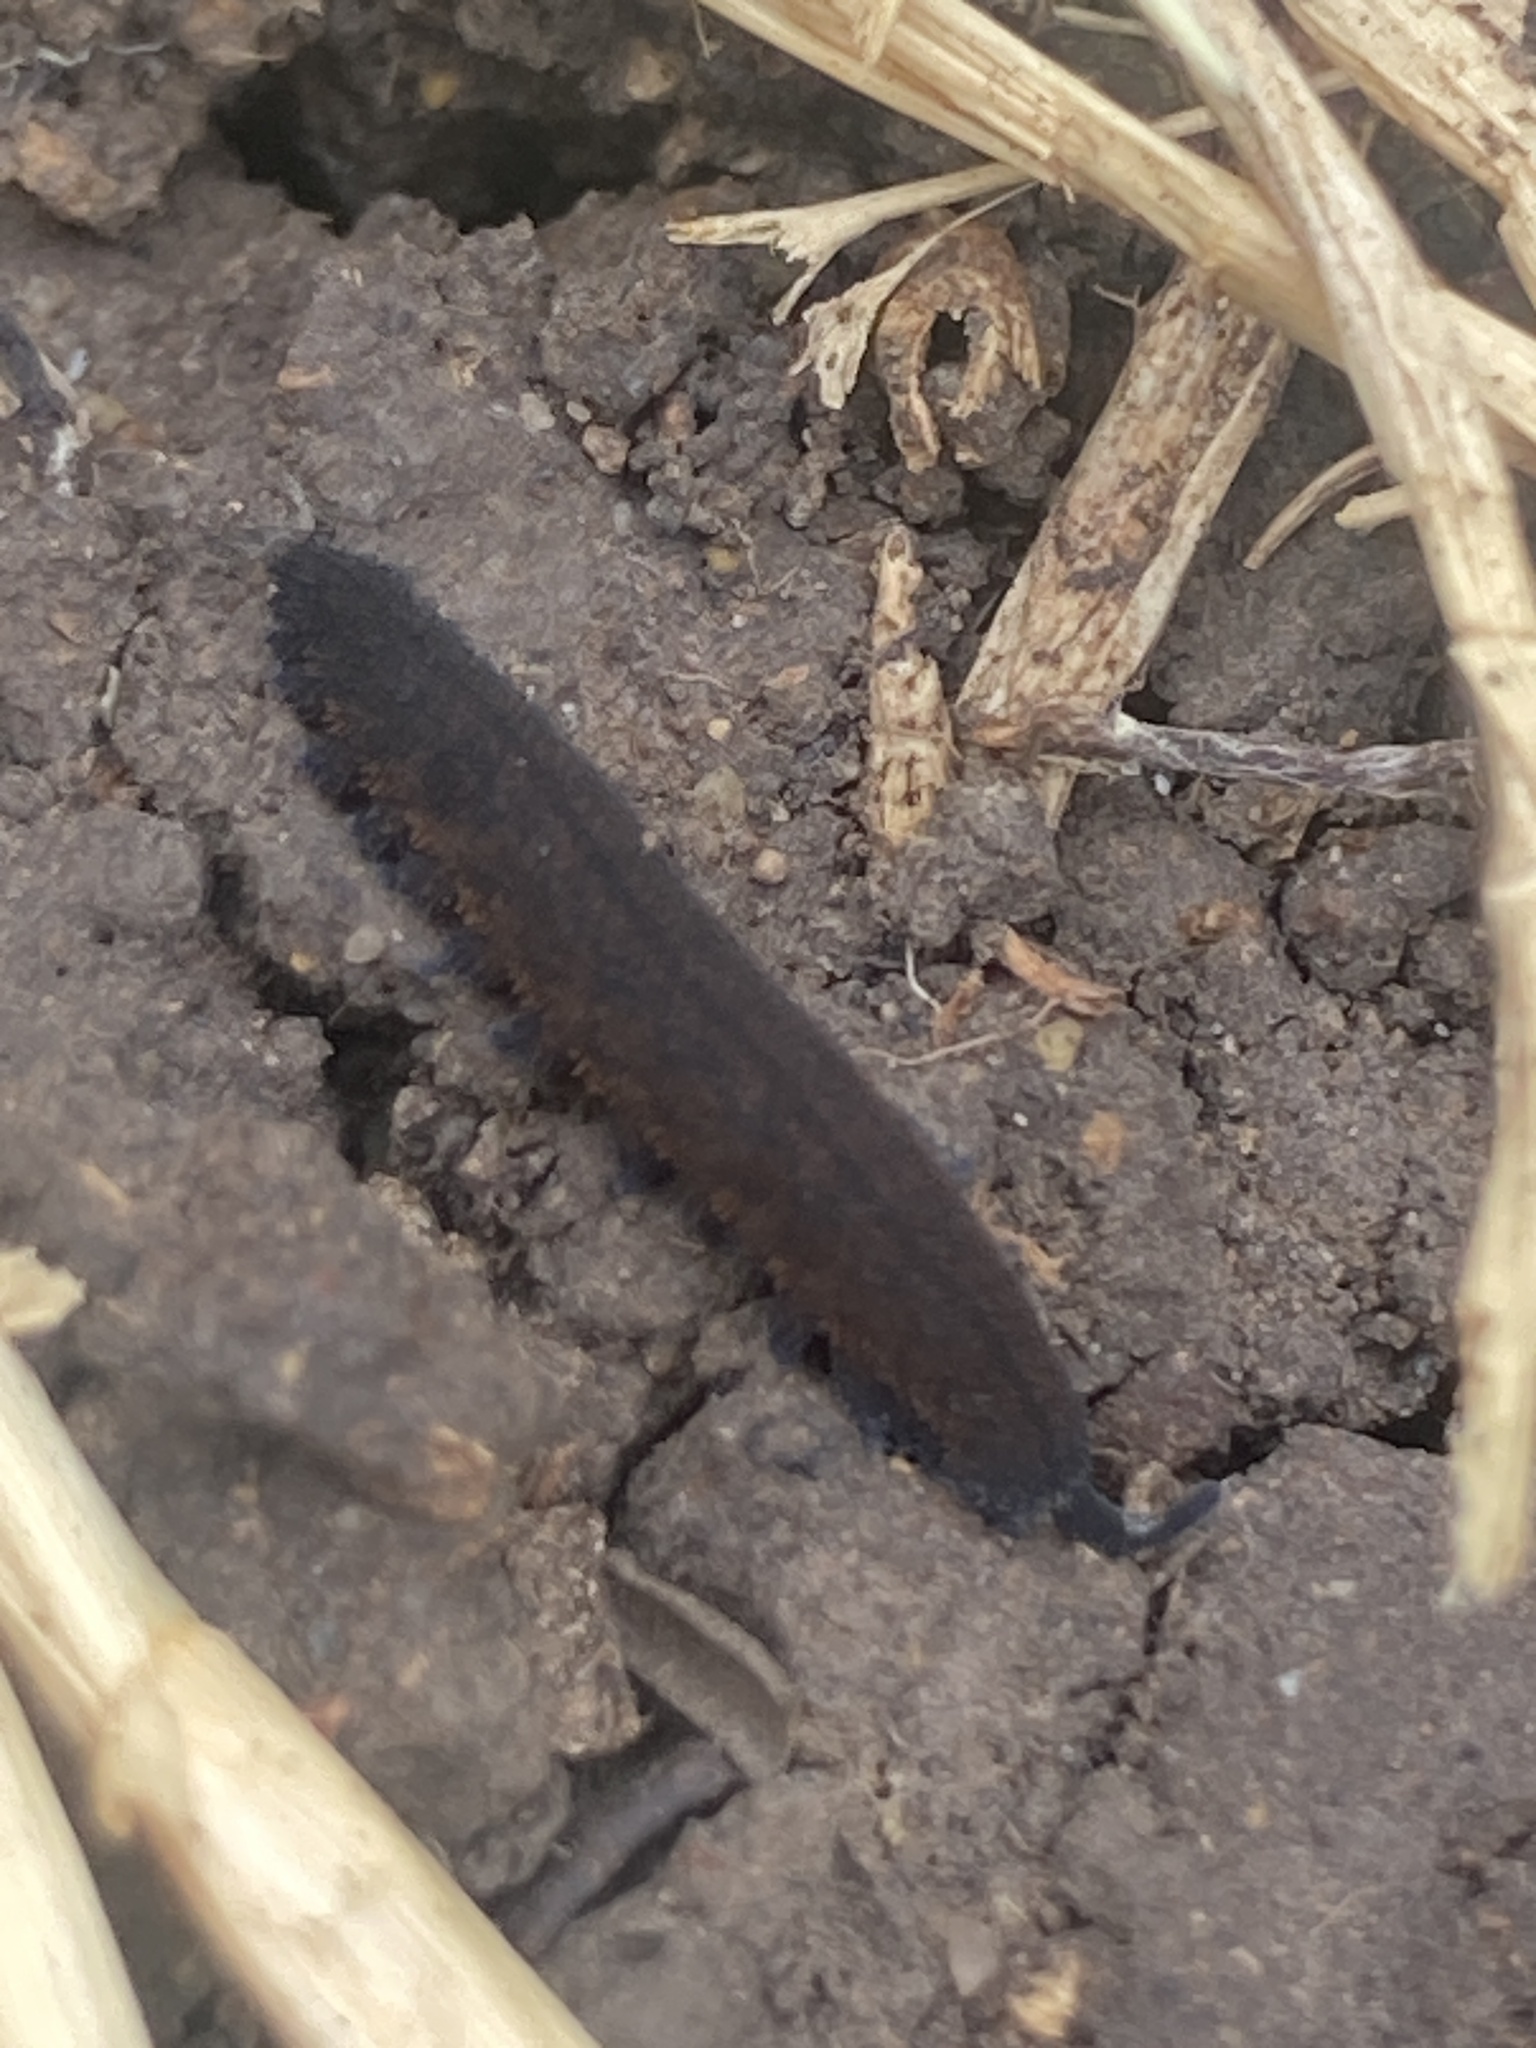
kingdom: Animalia
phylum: Onychophora
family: Peripatopsidae
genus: Anoplokaros
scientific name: Anoplokaros keerensis
